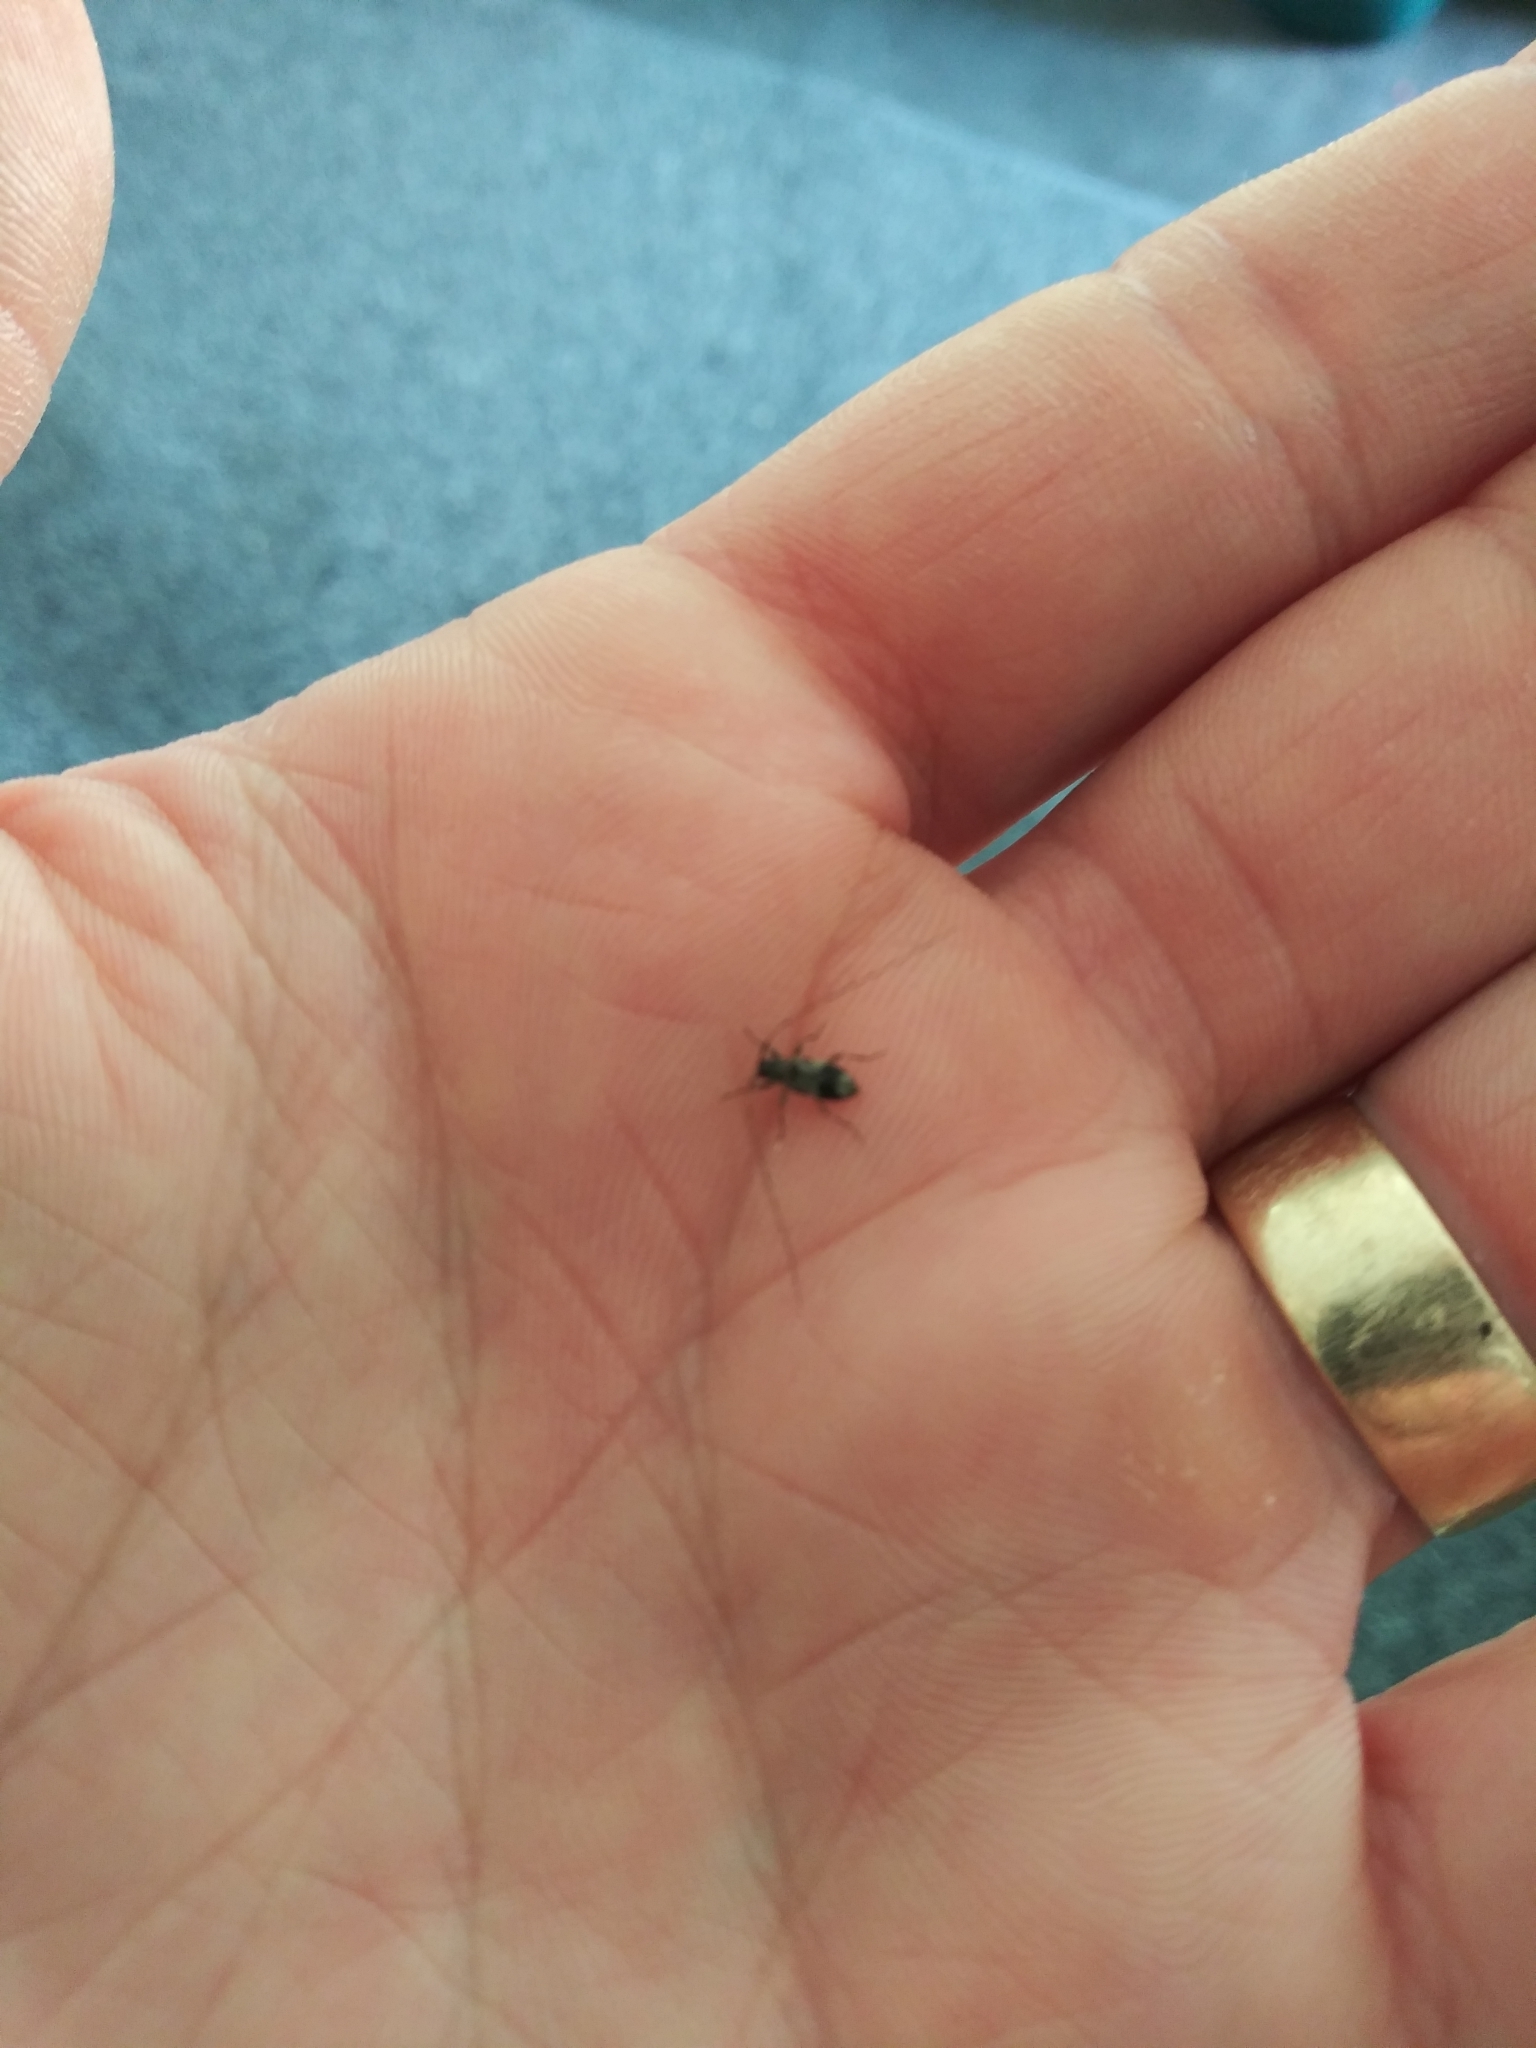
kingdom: Animalia
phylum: Arthropoda
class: Insecta
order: Coleoptera
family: Cerambycidae
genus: Urgleptes
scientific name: Urgleptes querci
